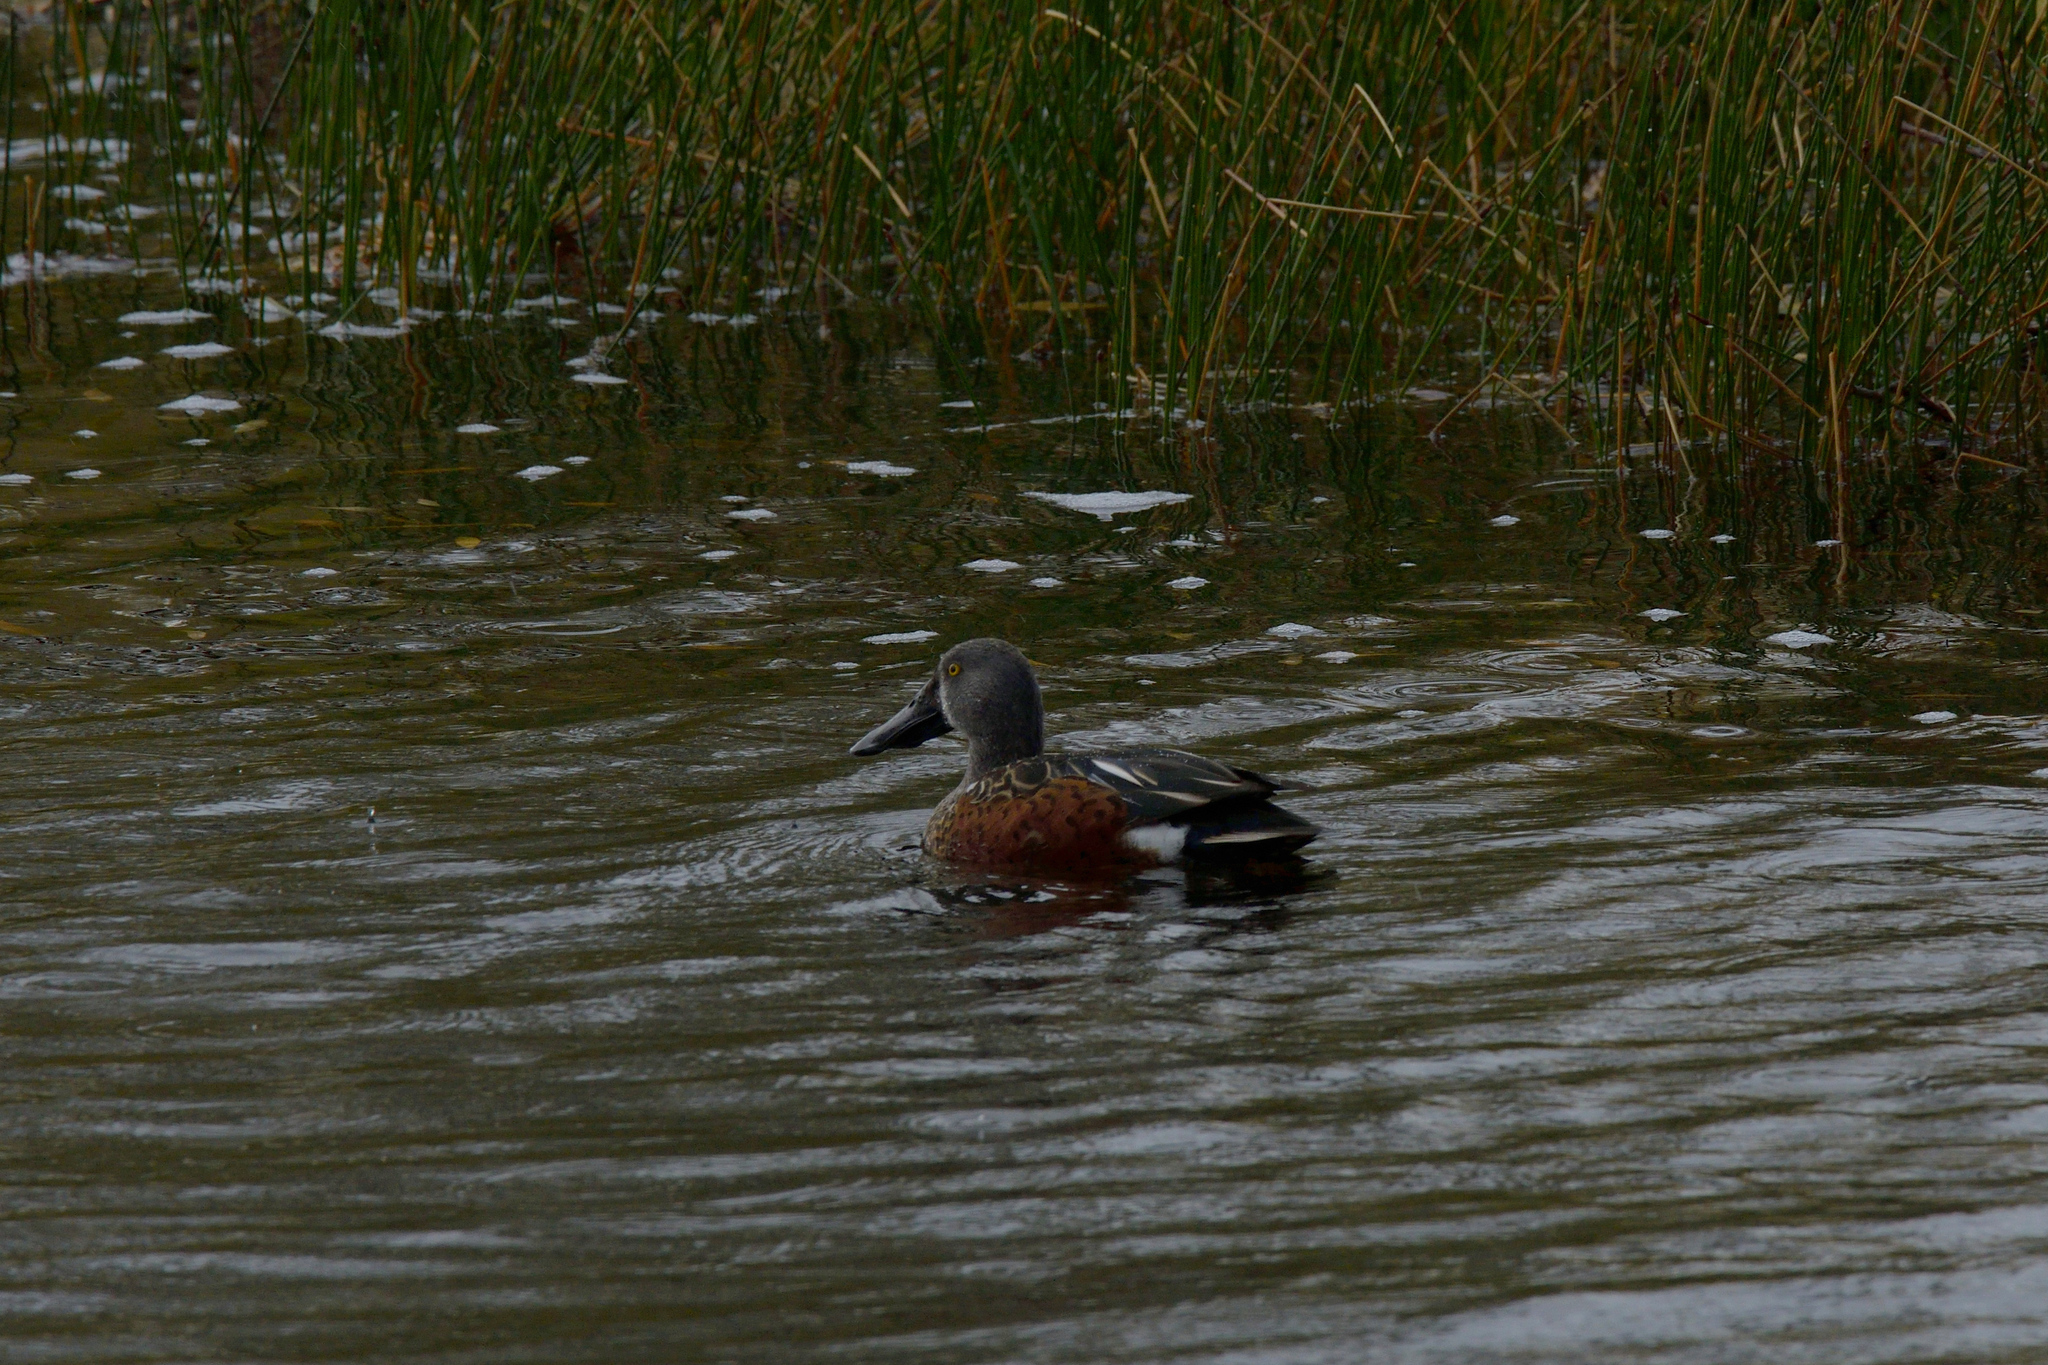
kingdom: Animalia
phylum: Chordata
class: Aves
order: Anseriformes
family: Anatidae
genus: Spatula
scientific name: Spatula rhynchotis
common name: Australian shoveler
